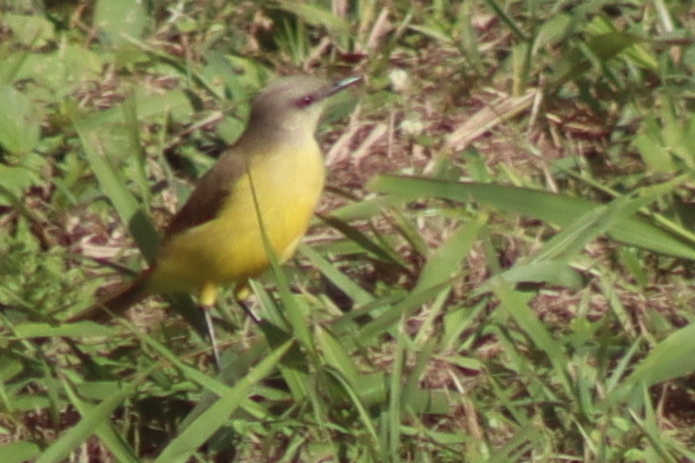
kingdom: Animalia
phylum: Chordata
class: Aves
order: Passeriformes
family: Tyrannidae
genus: Machetornis
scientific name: Machetornis rixosa
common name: Cattle tyrant
